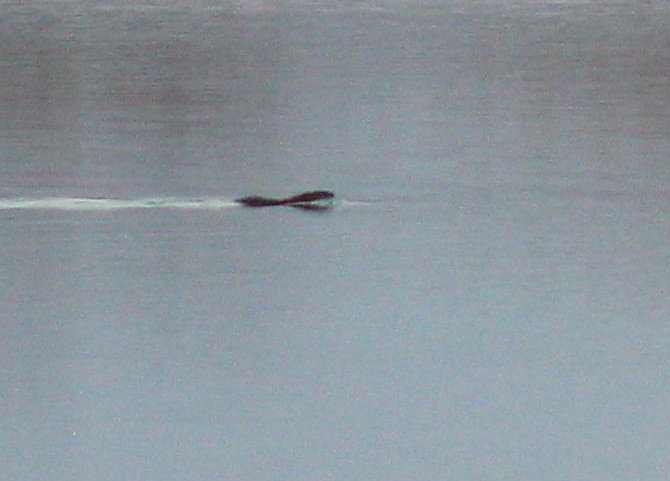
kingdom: Animalia
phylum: Chordata
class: Mammalia
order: Rodentia
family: Cricetidae
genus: Ondatra
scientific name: Ondatra zibethicus
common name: Muskrat
